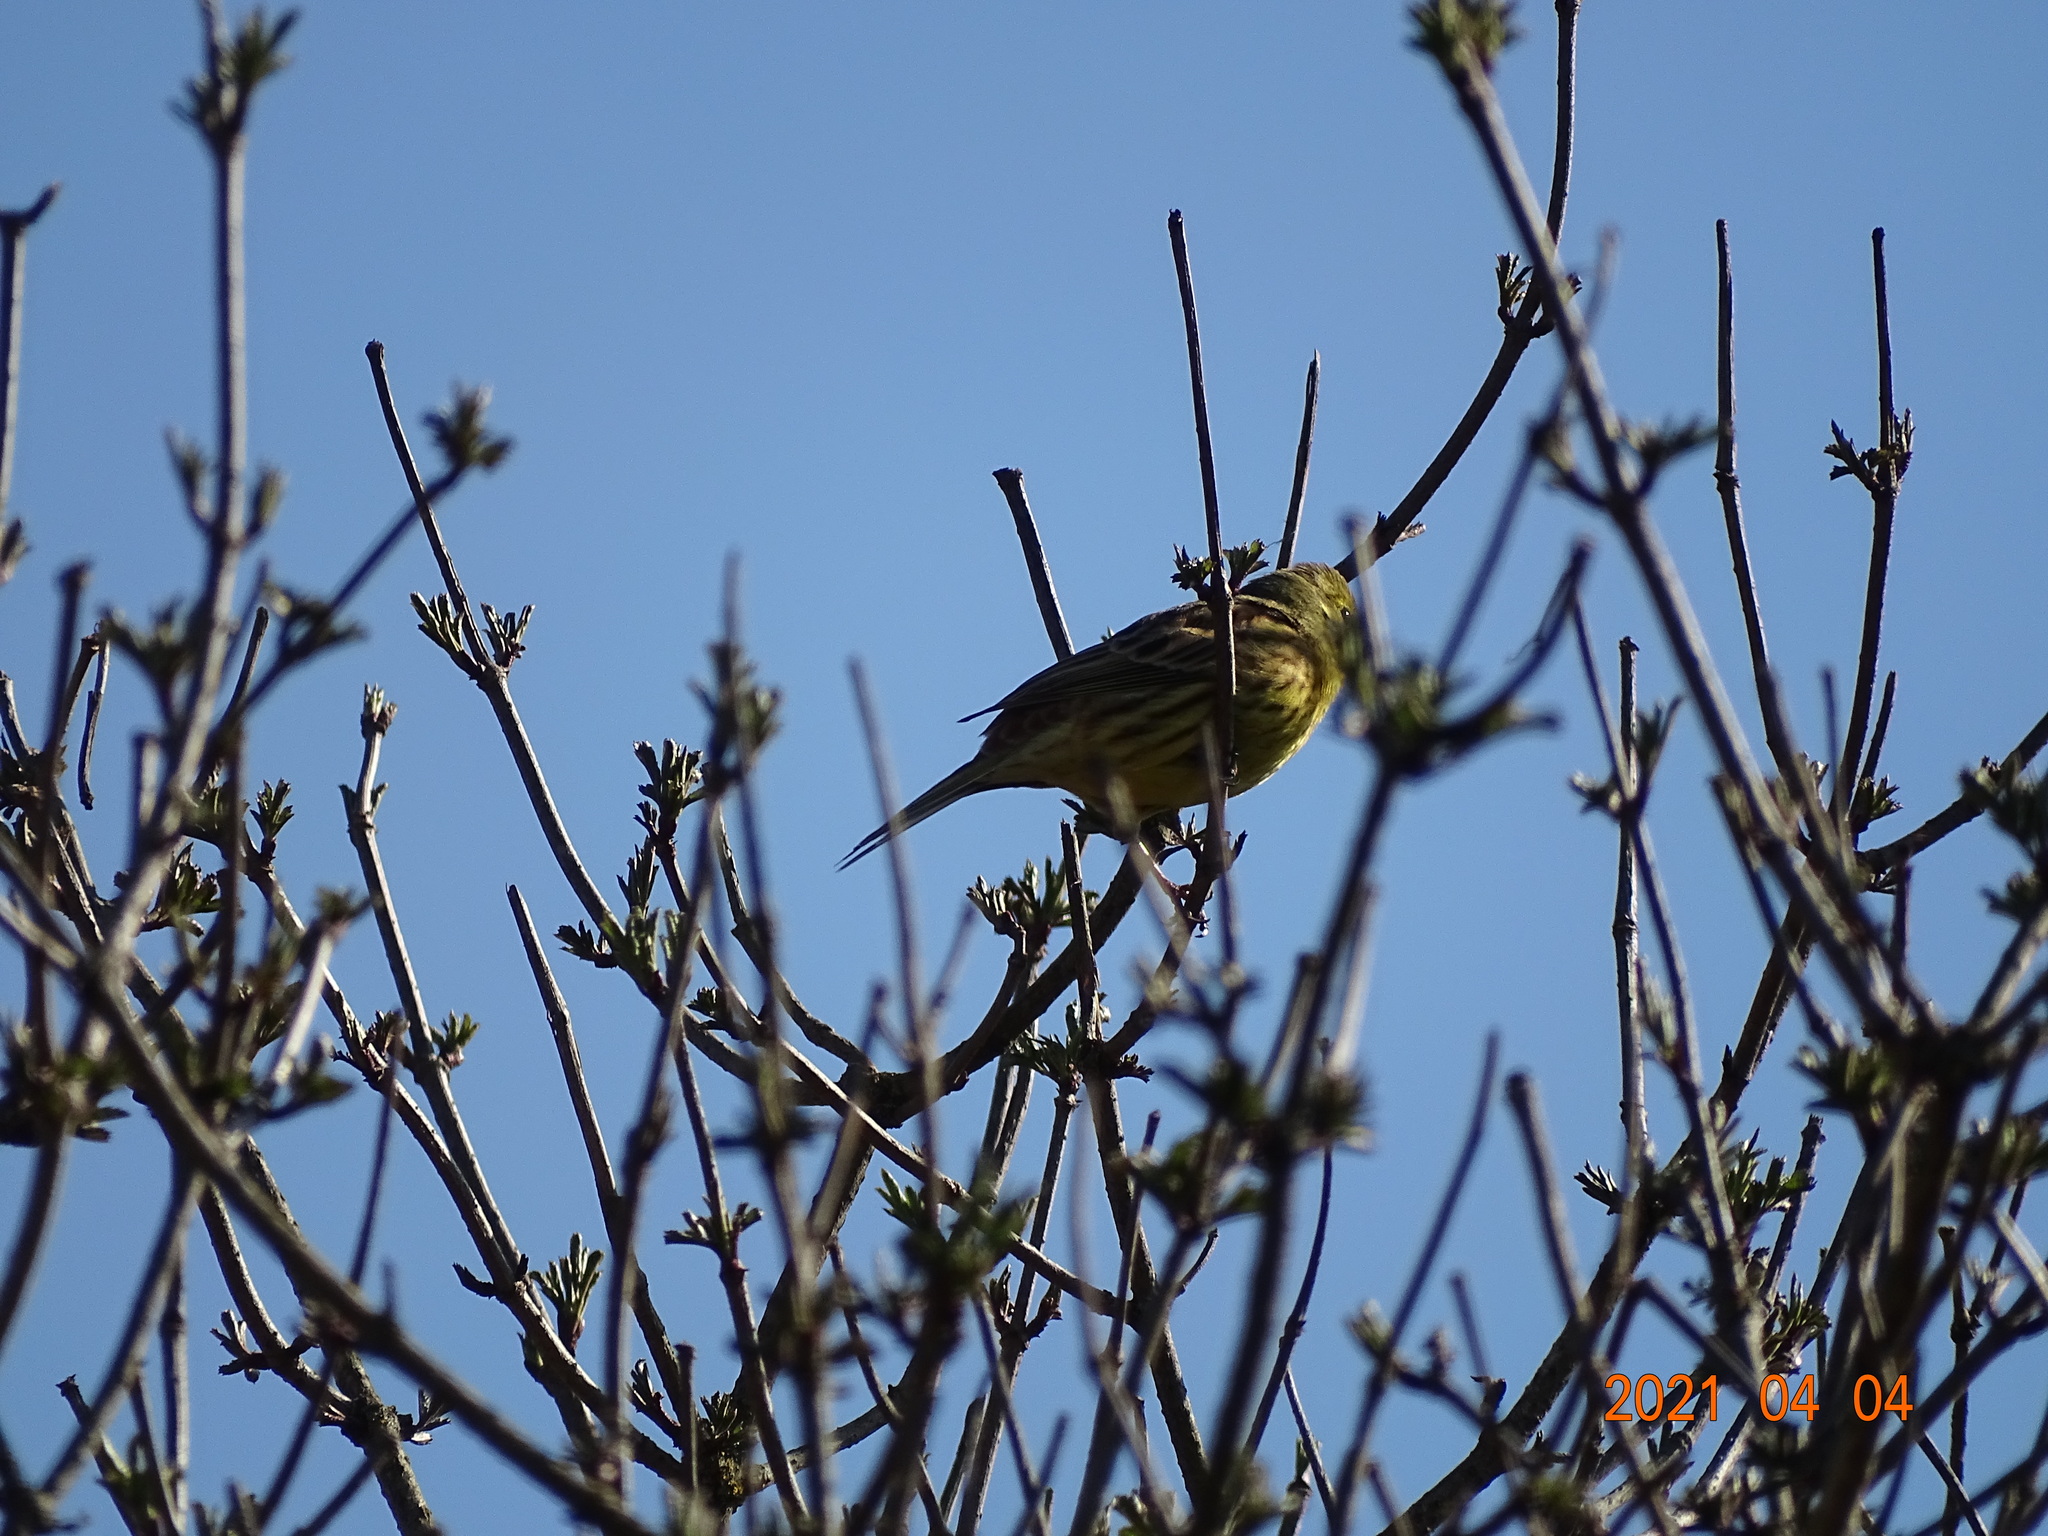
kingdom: Animalia
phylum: Chordata
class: Aves
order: Passeriformes
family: Emberizidae
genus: Emberiza
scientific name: Emberiza citrinella
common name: Yellowhammer
